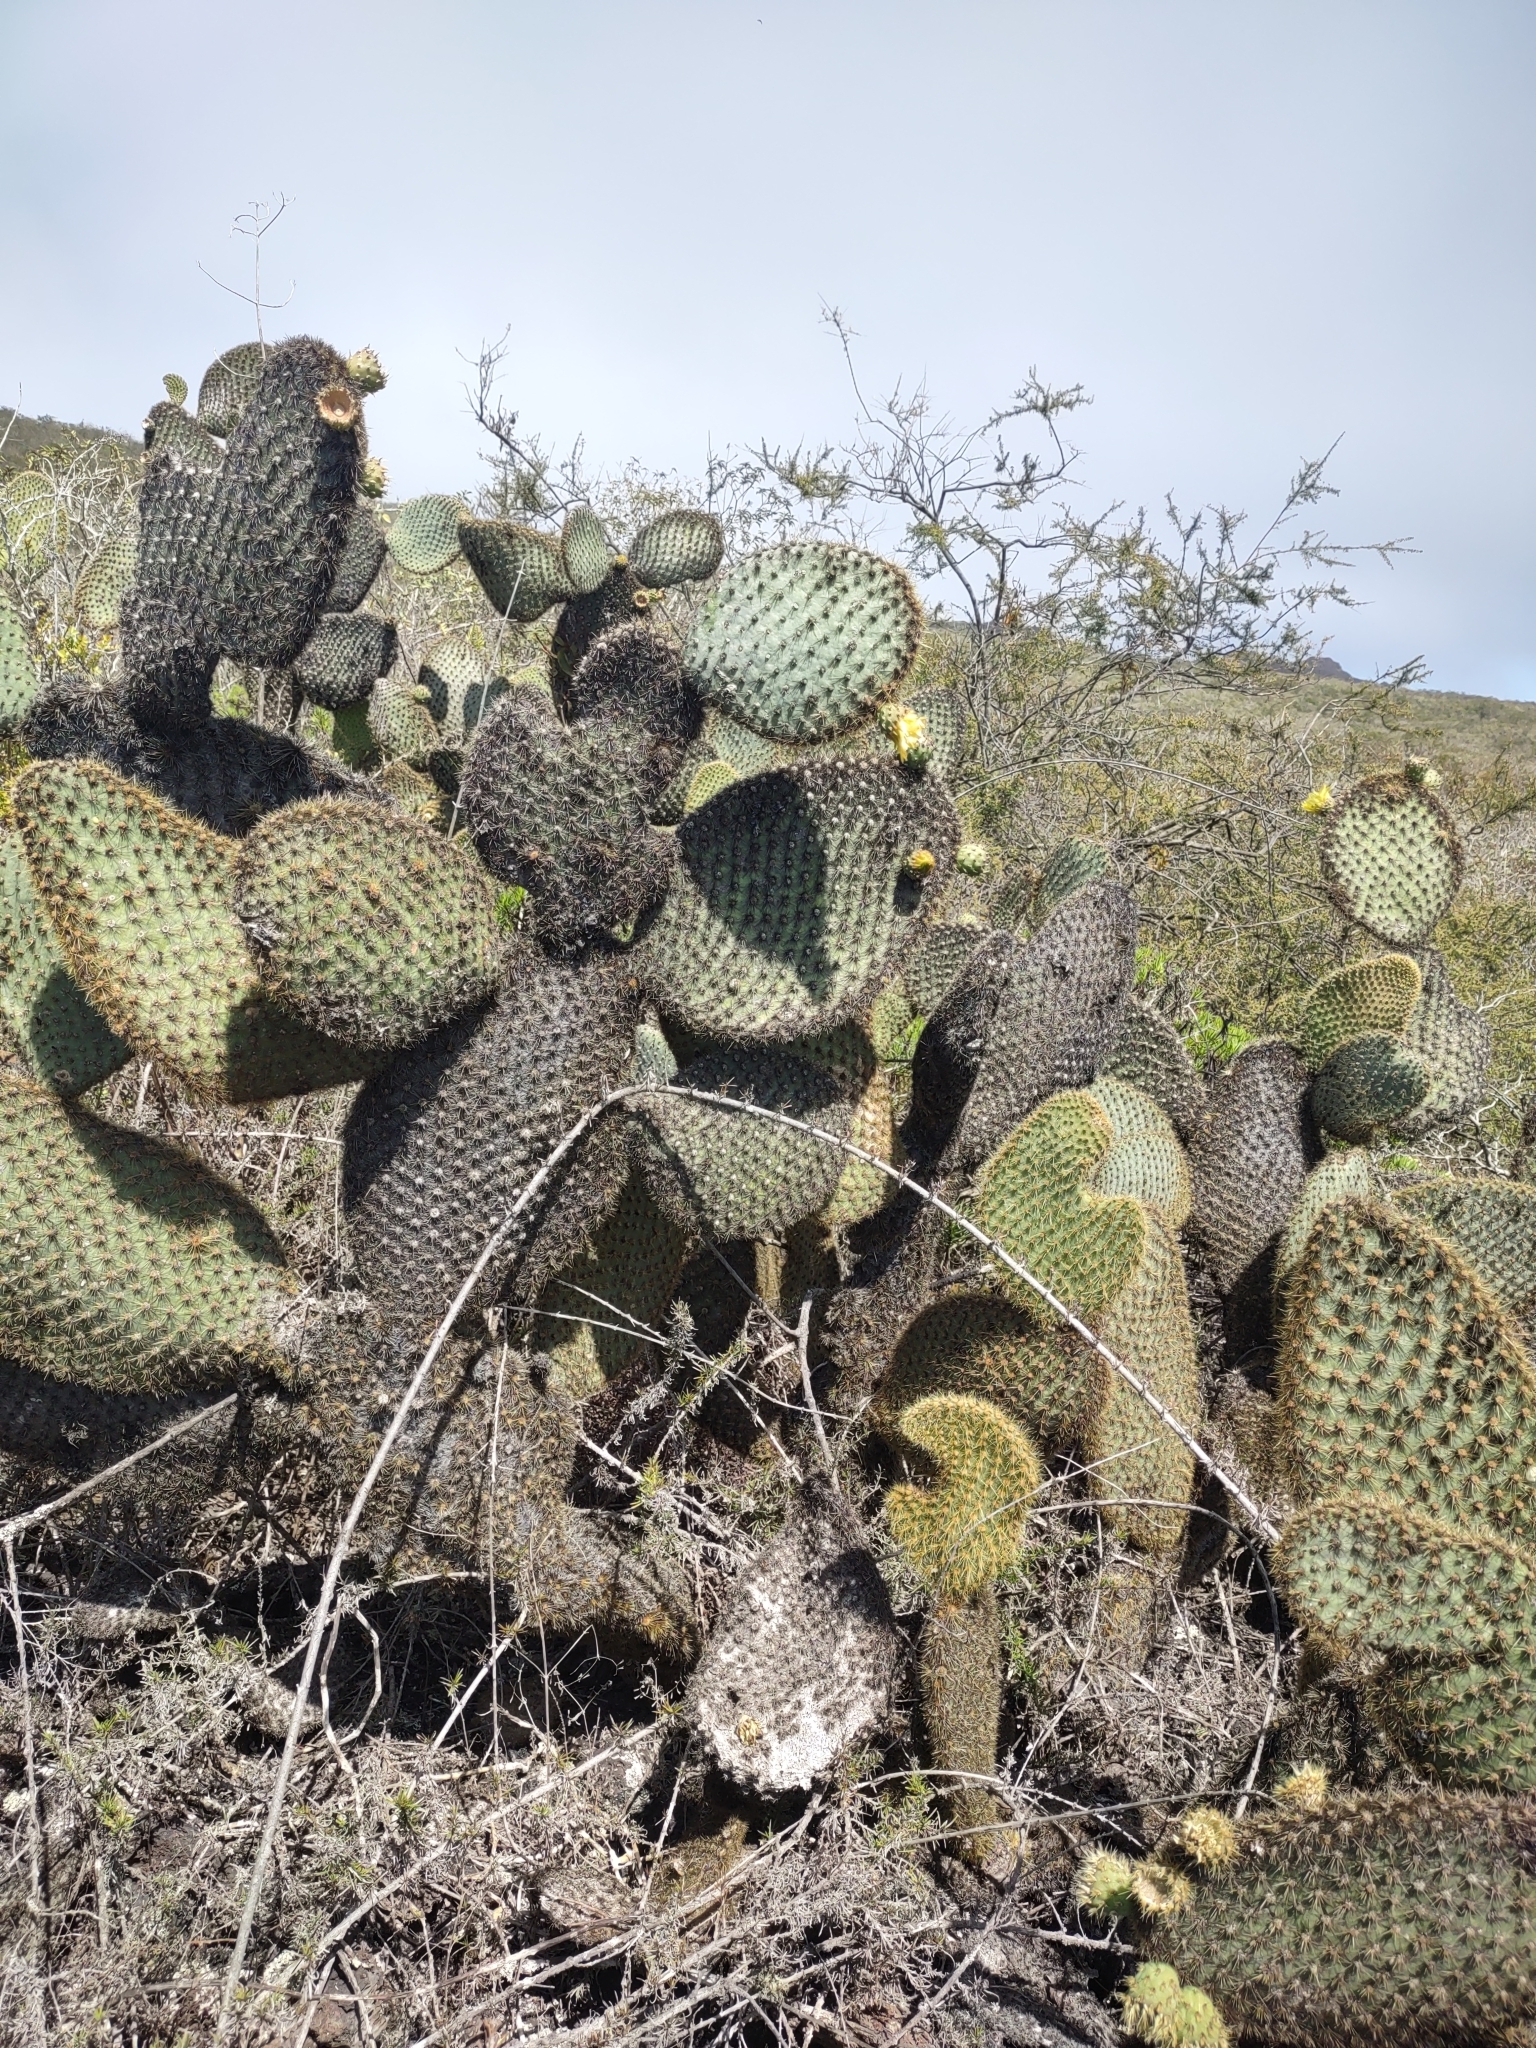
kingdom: Plantae
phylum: Tracheophyta
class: Magnoliopsida
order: Caryophyllales
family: Cactaceae
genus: Opuntia
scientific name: Opuntia galapageia
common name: Galápagos prickly pear
